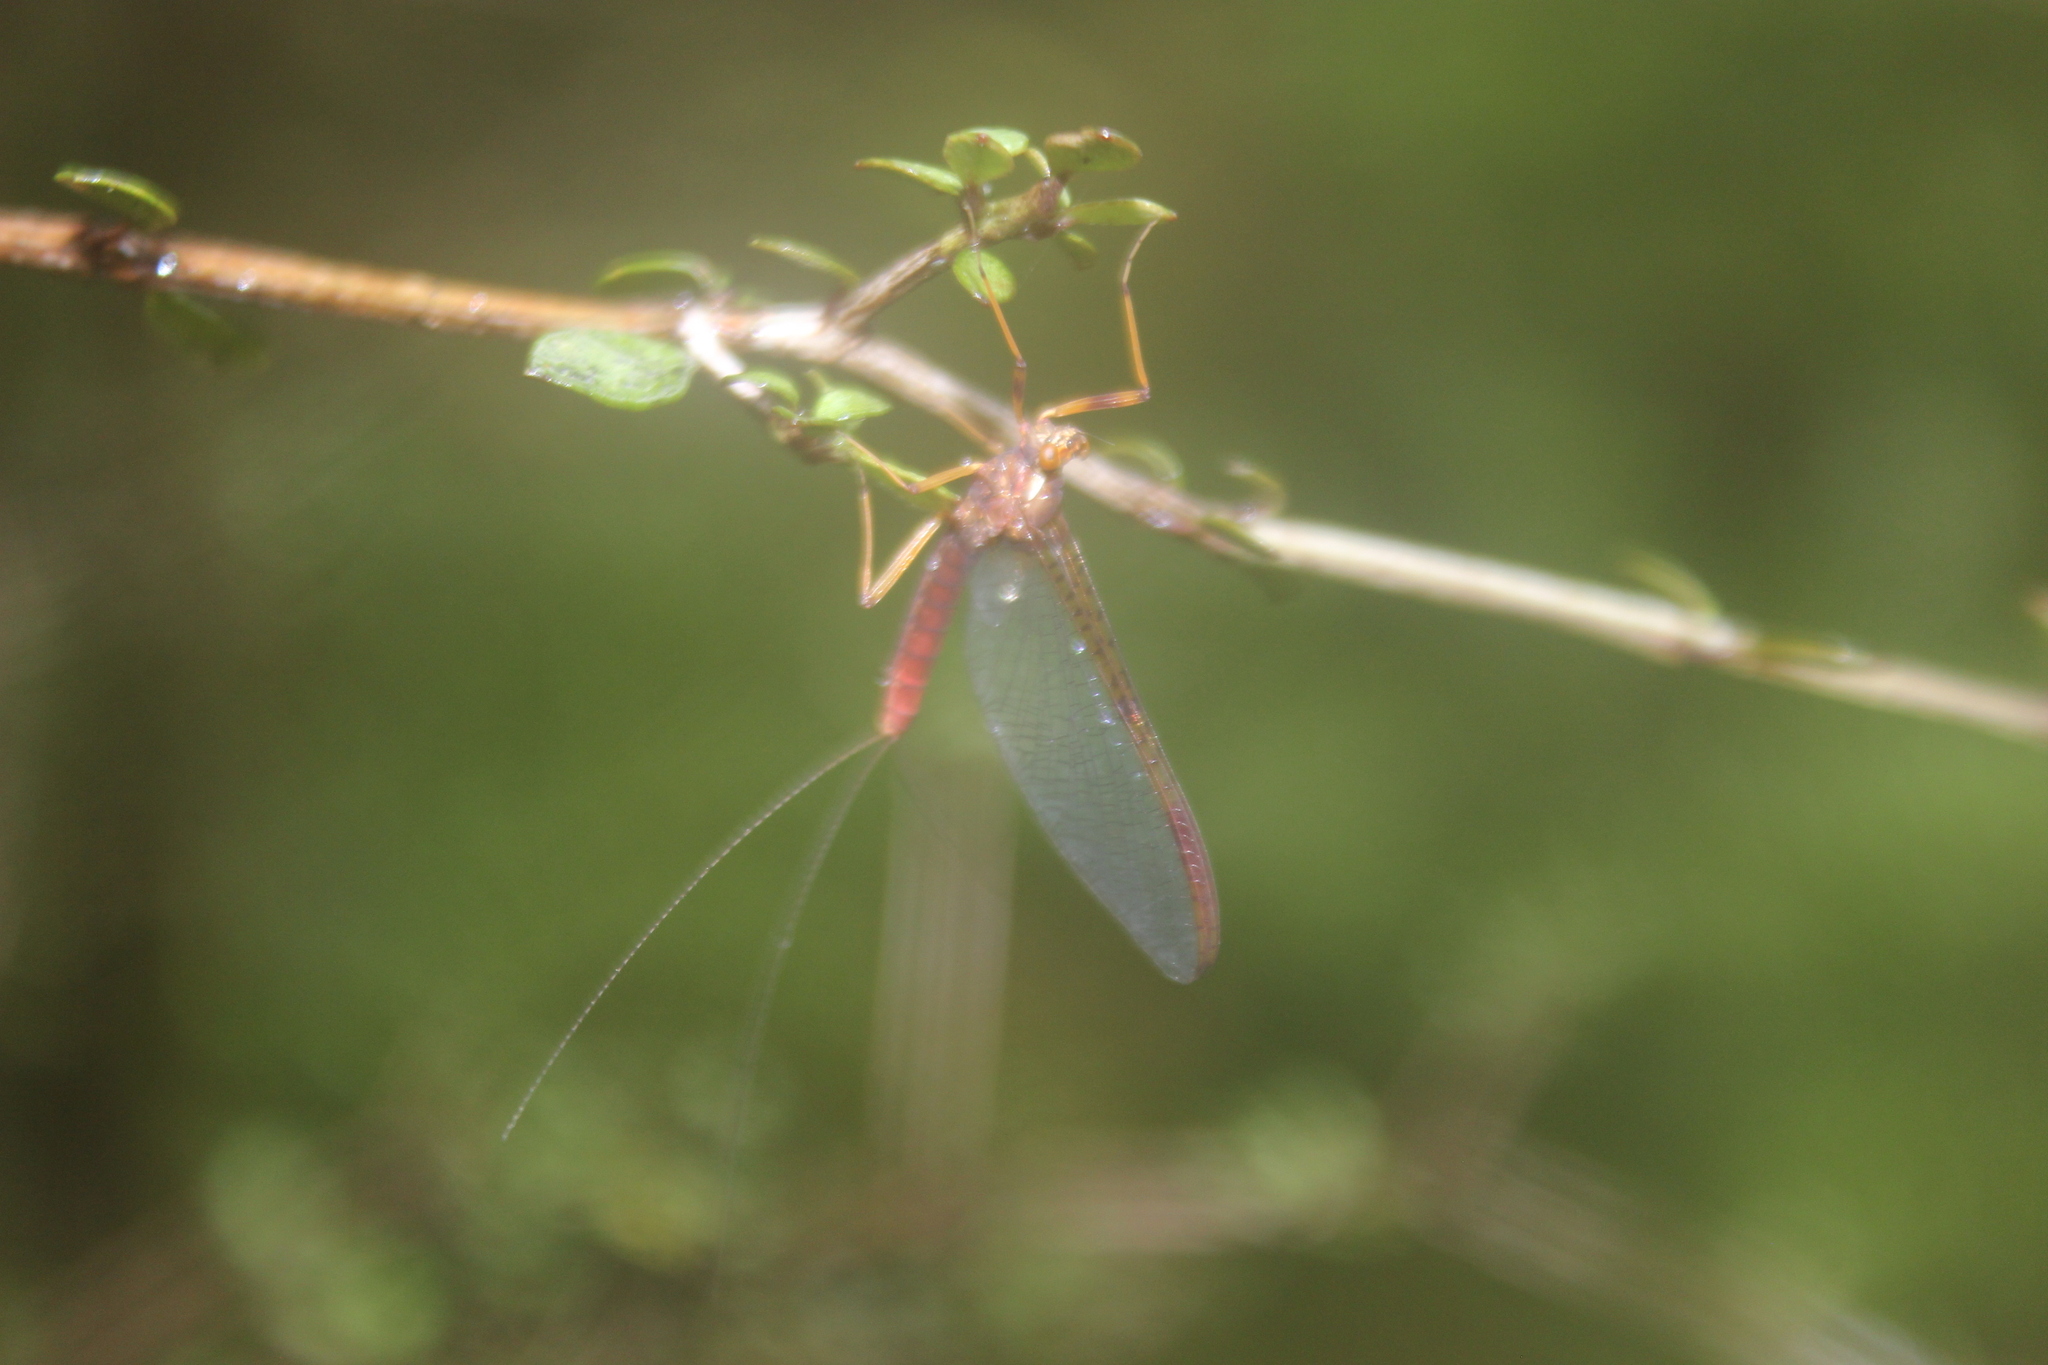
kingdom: Animalia
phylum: Arthropoda
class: Insecta
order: Ephemeroptera
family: Leptophlebiidae
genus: Zephlebia
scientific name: Zephlebia borealis
